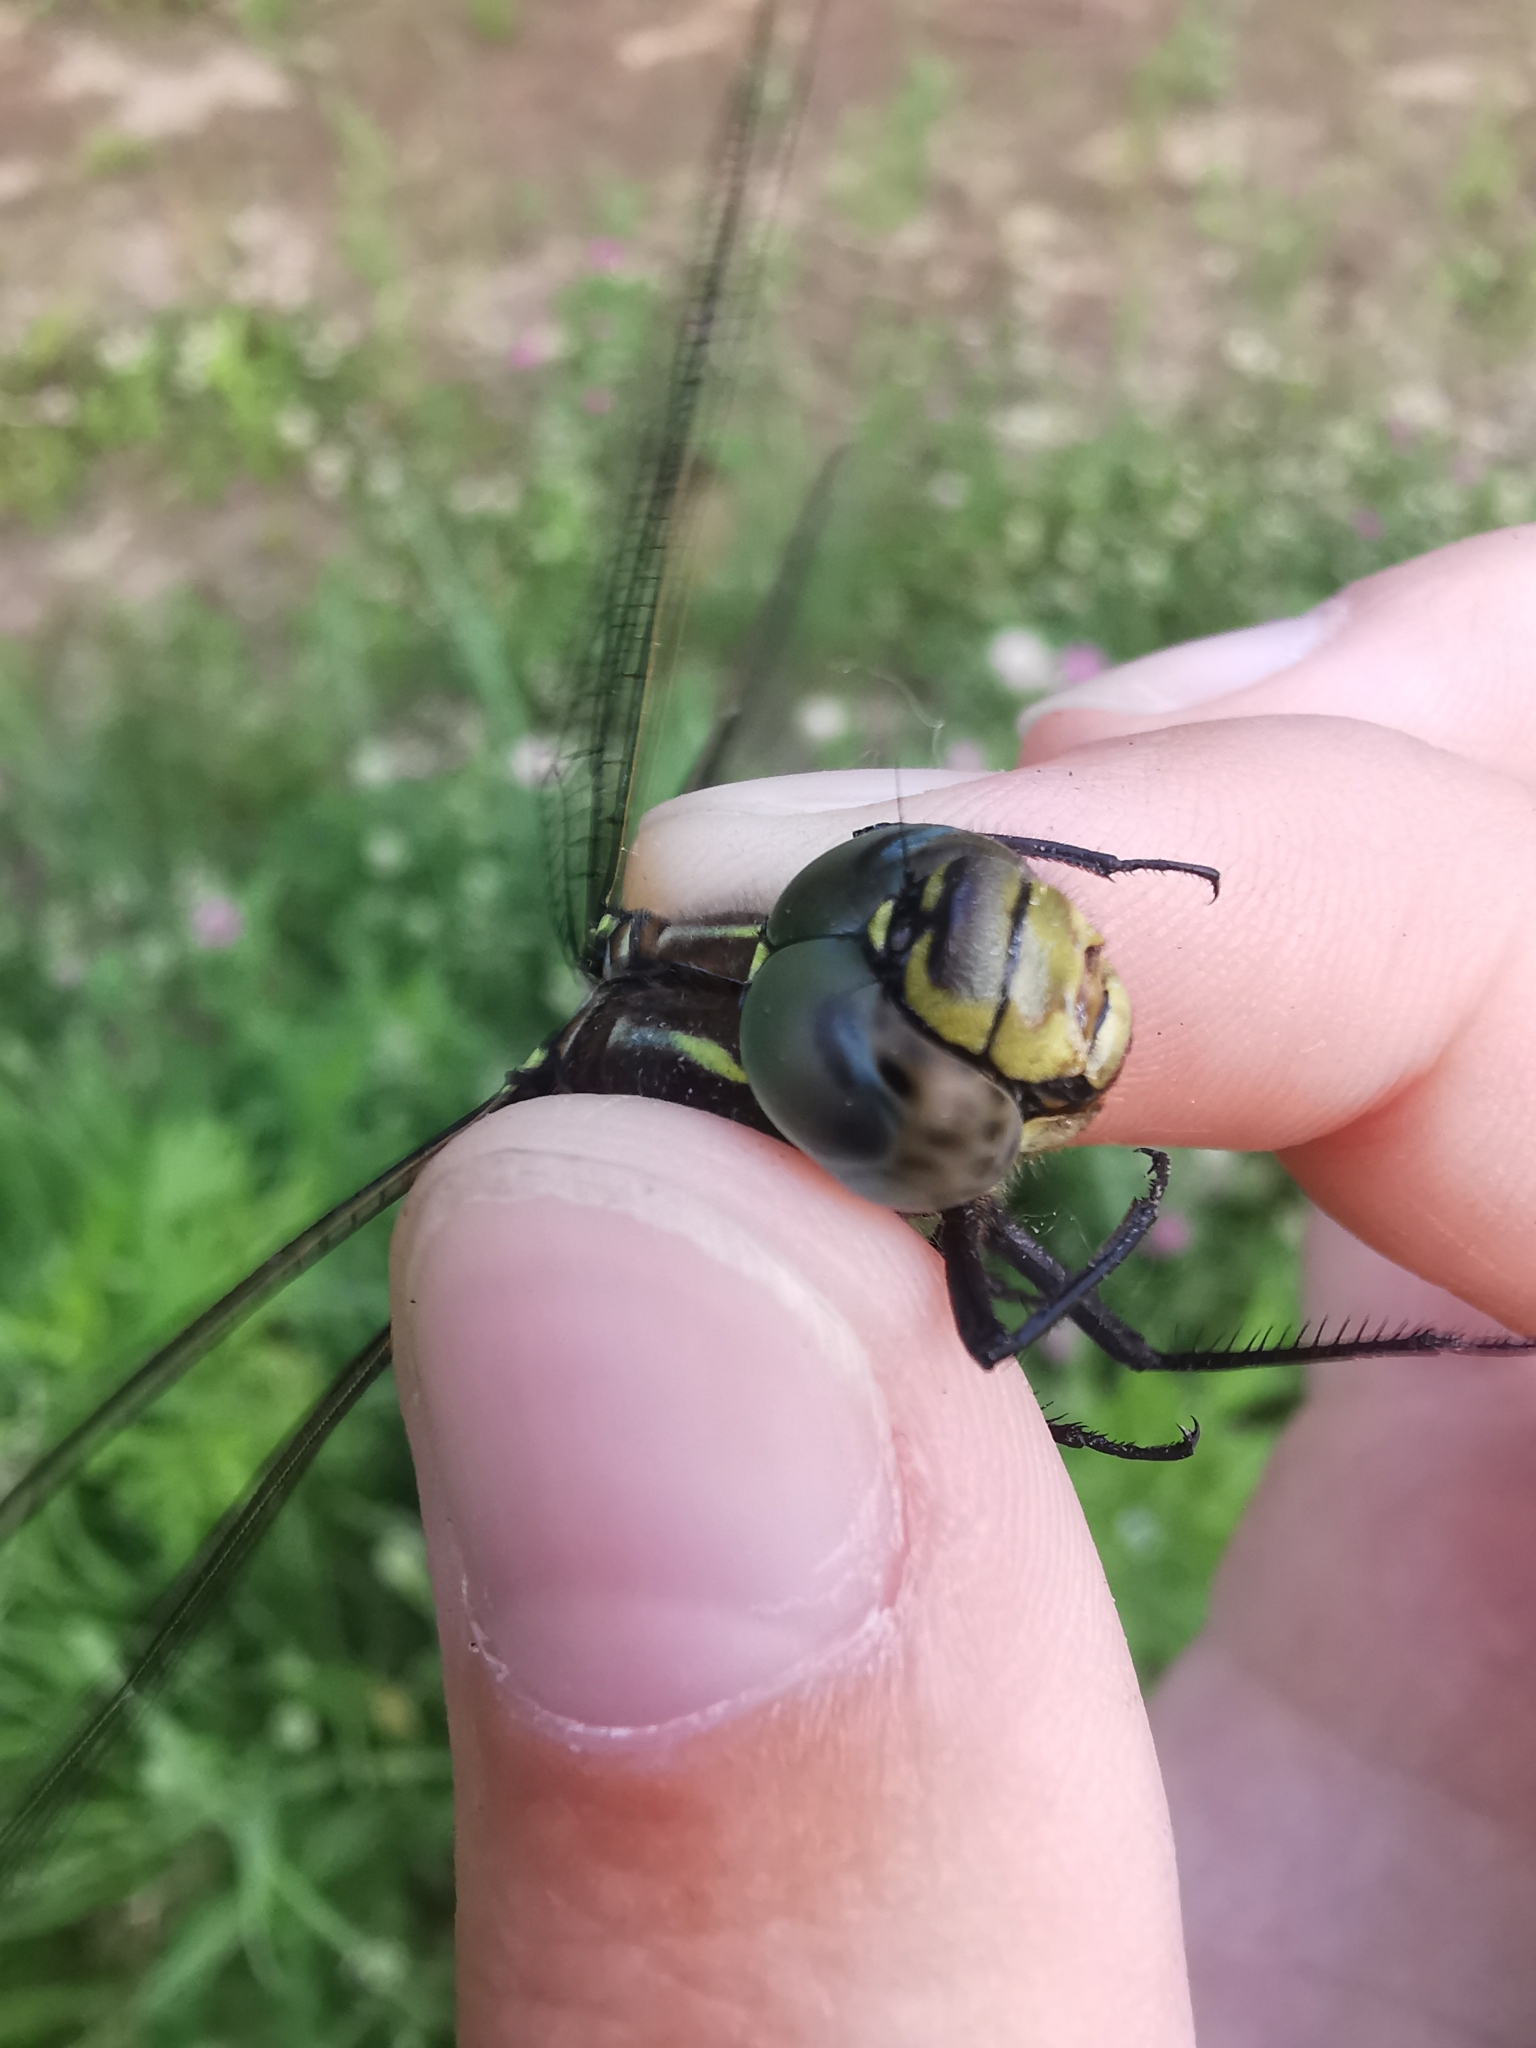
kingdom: Animalia
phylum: Arthropoda
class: Insecta
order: Odonata
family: Aeshnidae
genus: Aeshna
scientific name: Aeshna juncea
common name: Moorland hawker
